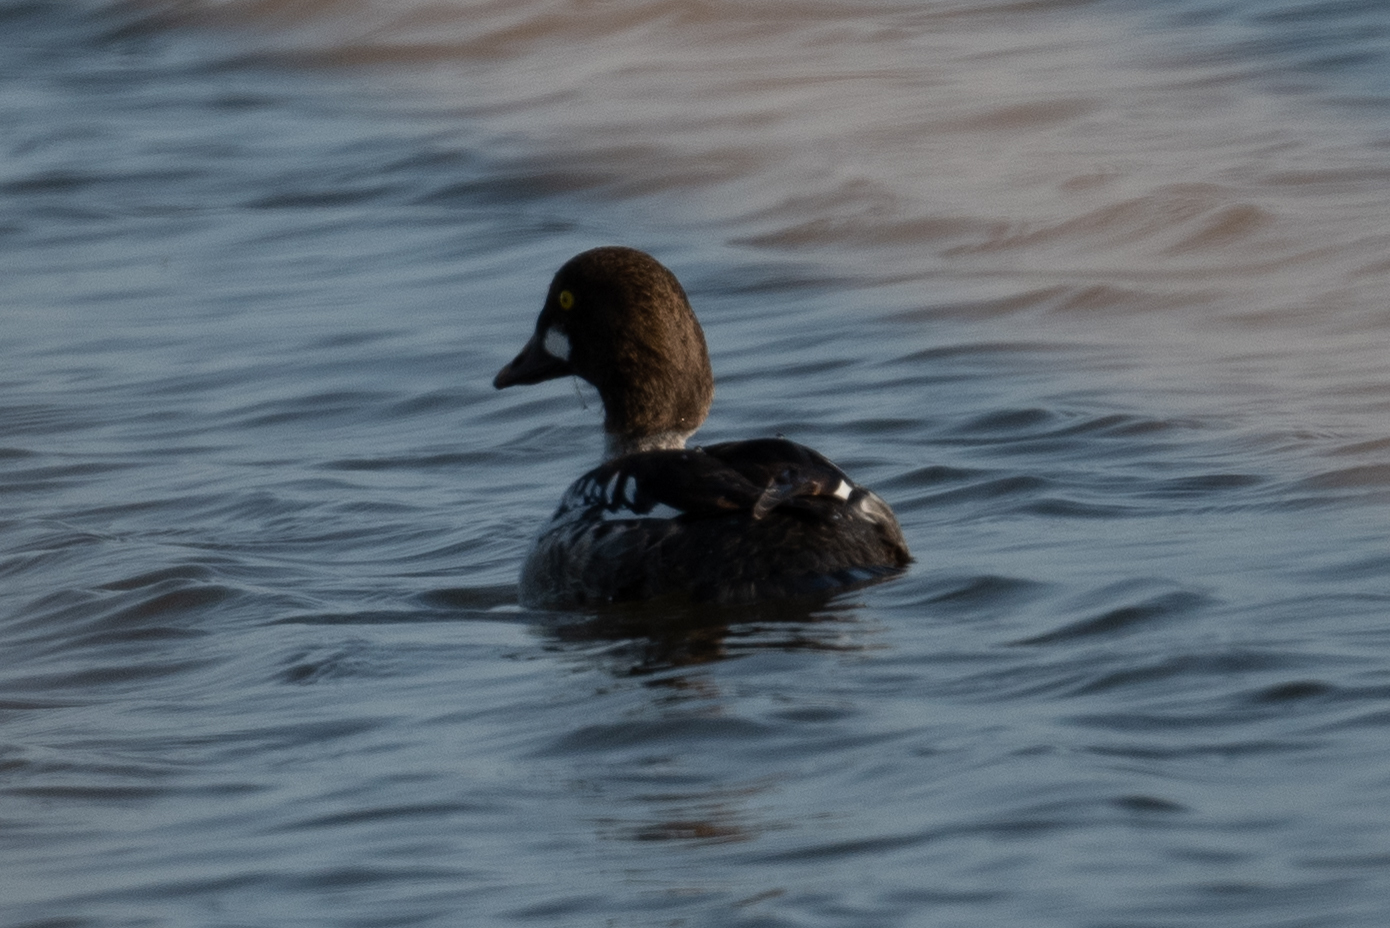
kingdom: Animalia
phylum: Chordata
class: Aves
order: Anseriformes
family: Anatidae
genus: Bucephala
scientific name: Bucephala clangula
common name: Common goldeneye
